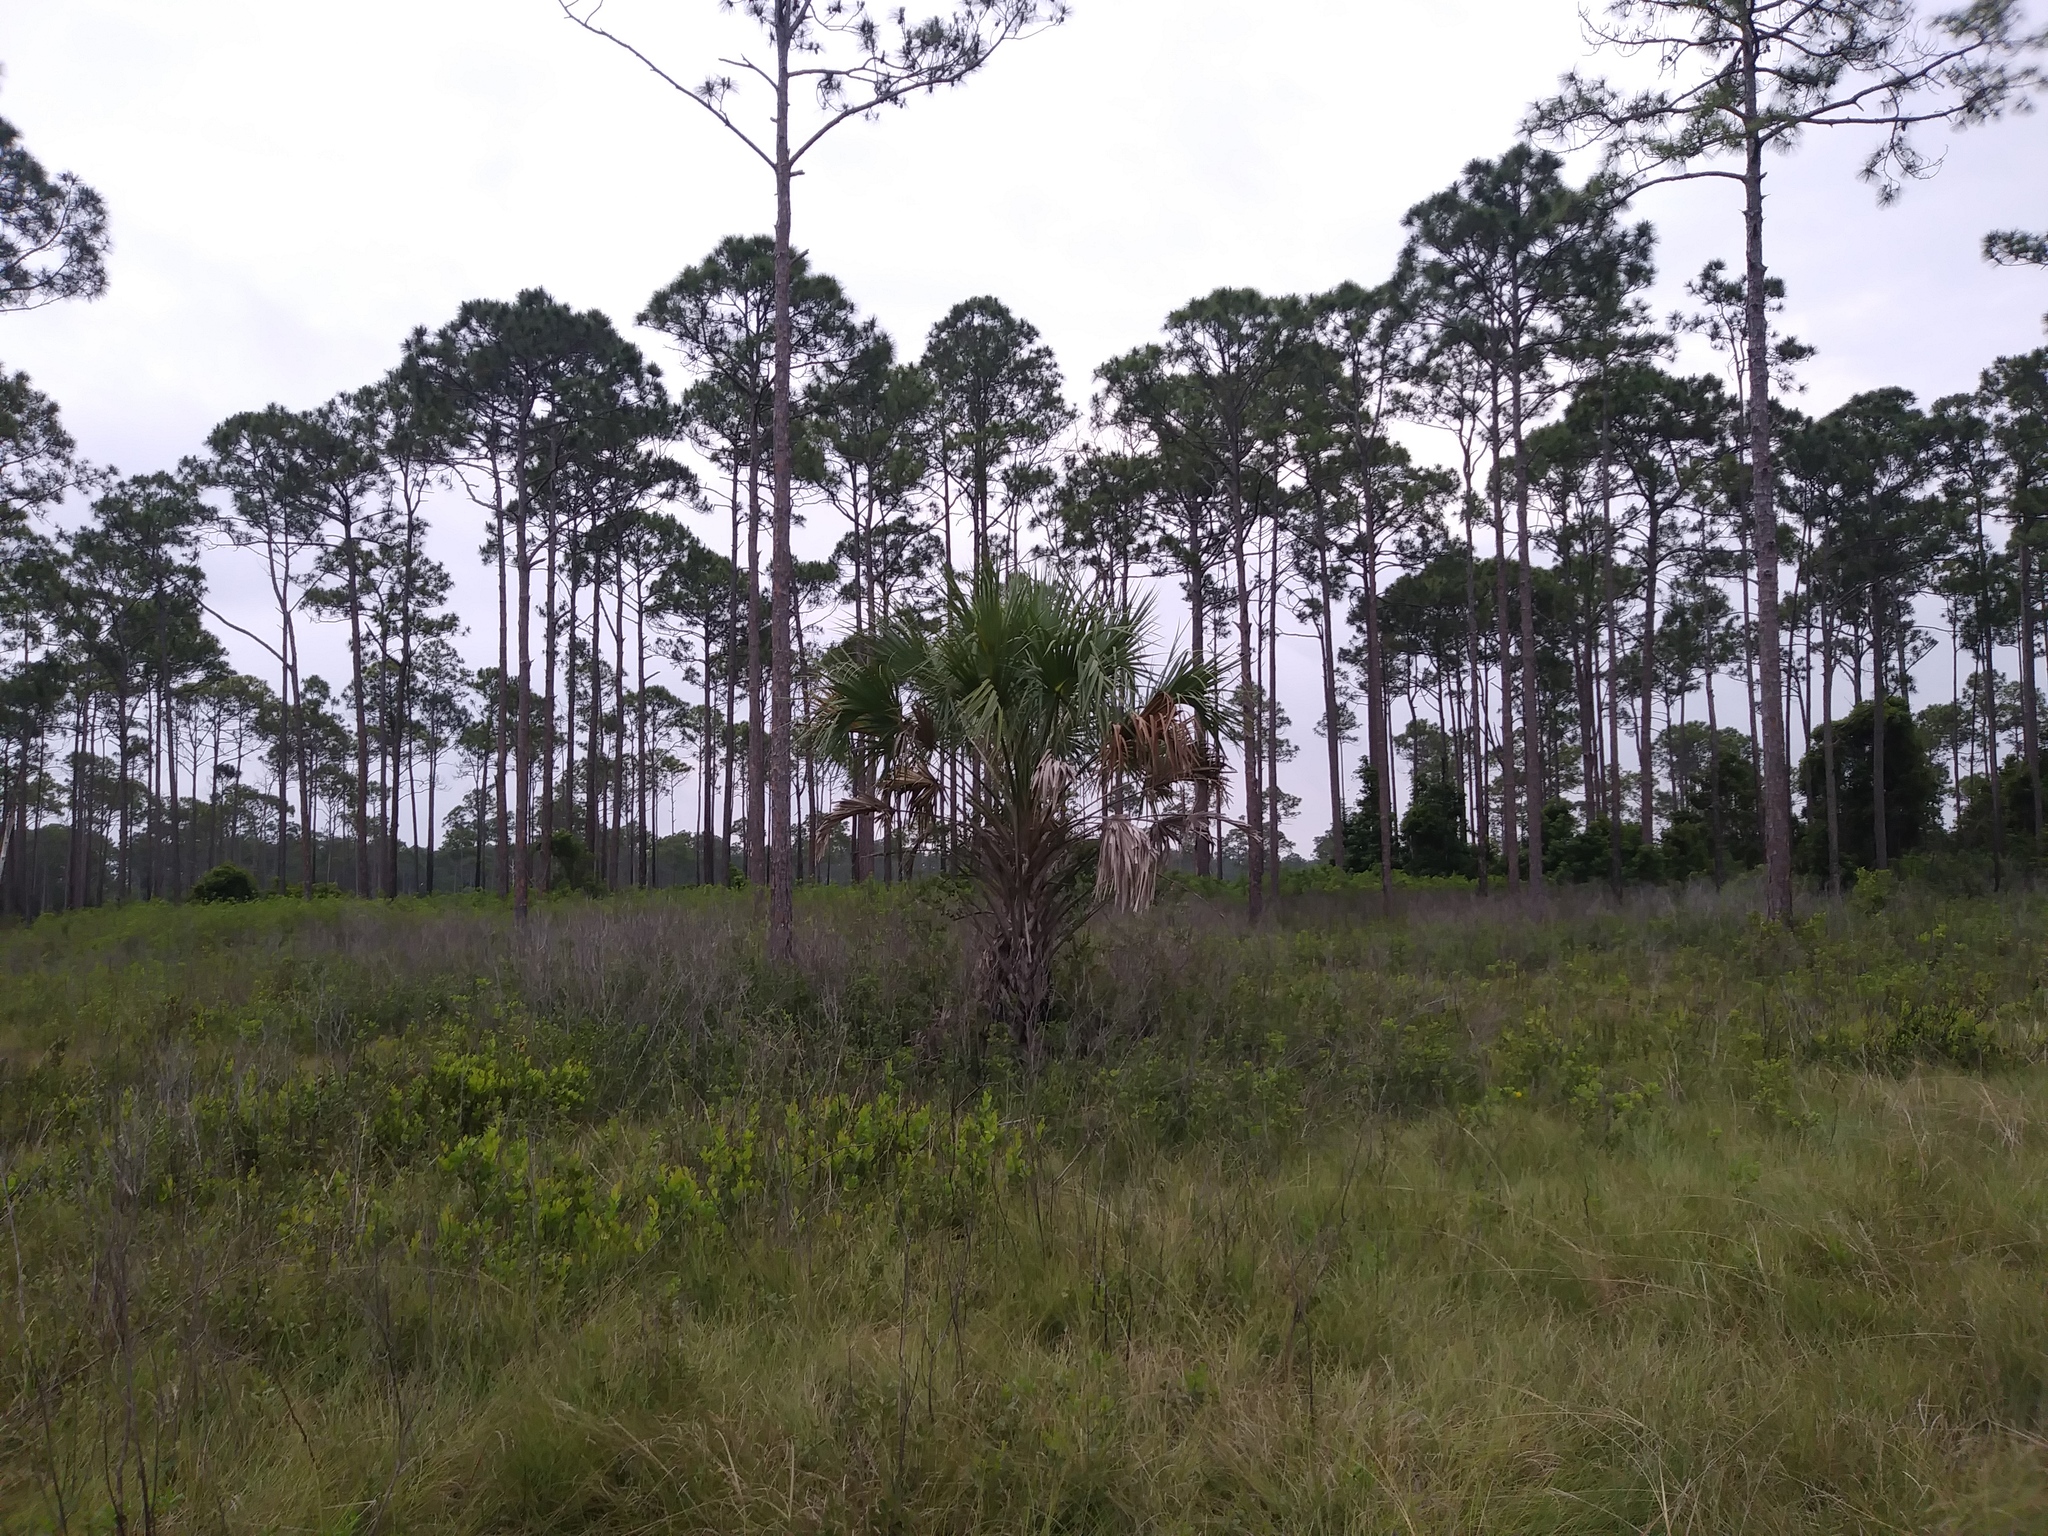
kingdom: Plantae
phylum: Tracheophyta
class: Liliopsida
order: Arecales
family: Arecaceae
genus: Sabal
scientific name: Sabal palmetto
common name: Blue palmetto
